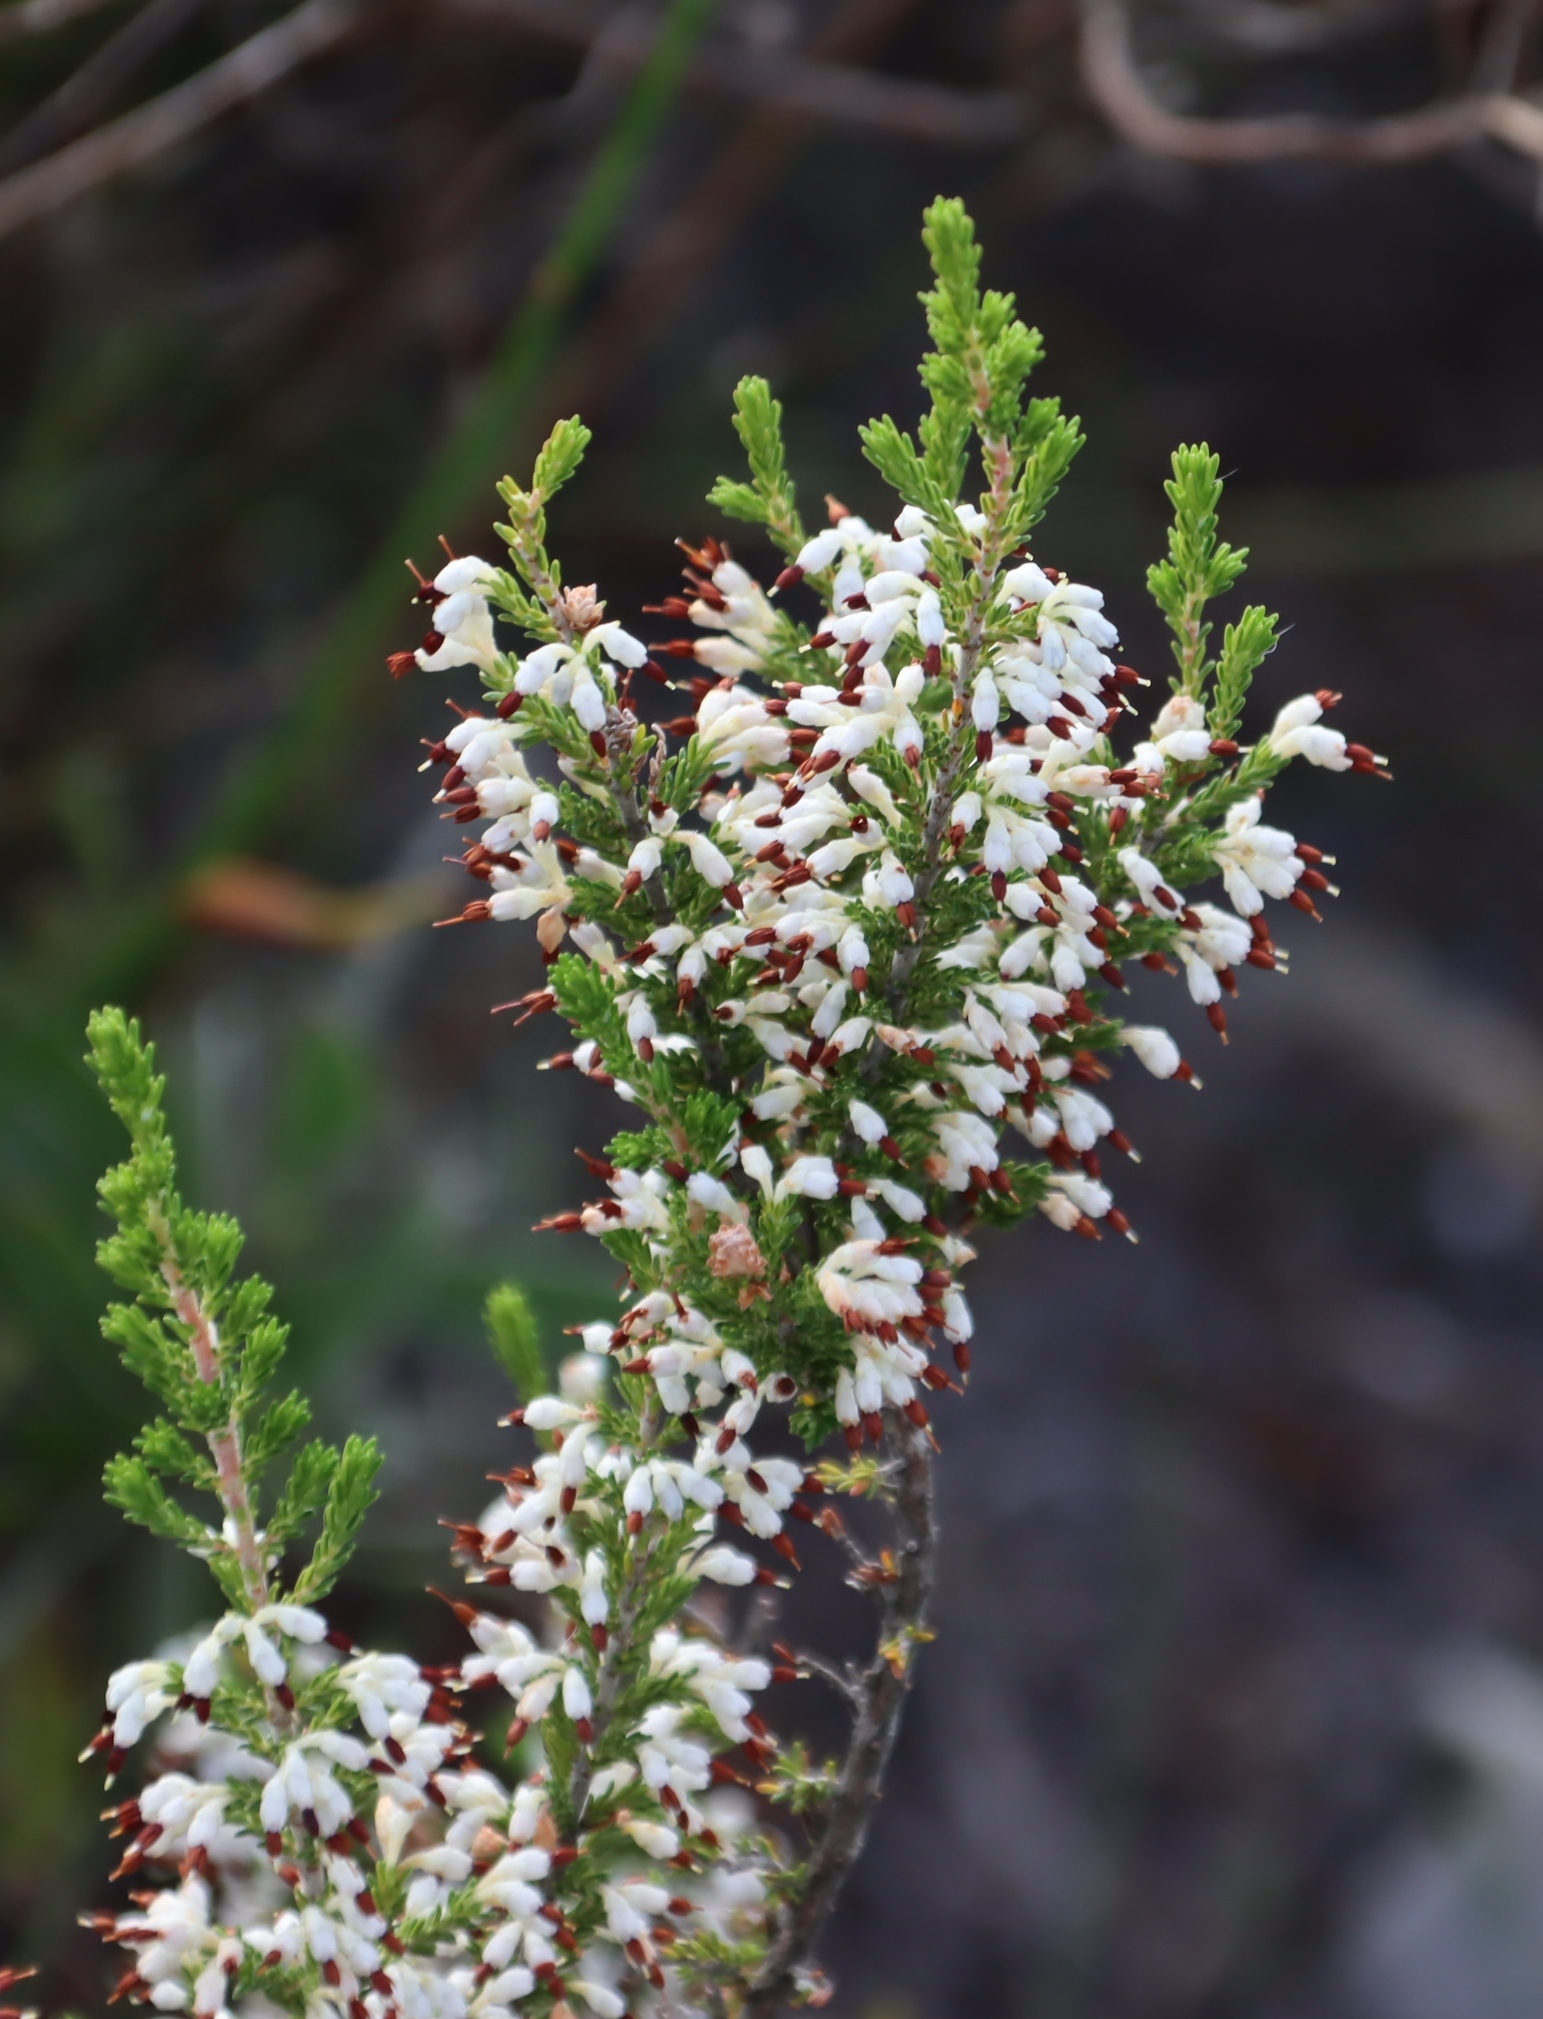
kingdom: Plantae
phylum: Tracheophyta
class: Magnoliopsida
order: Ericales
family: Ericaceae
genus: Erica
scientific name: Erica imbricata
